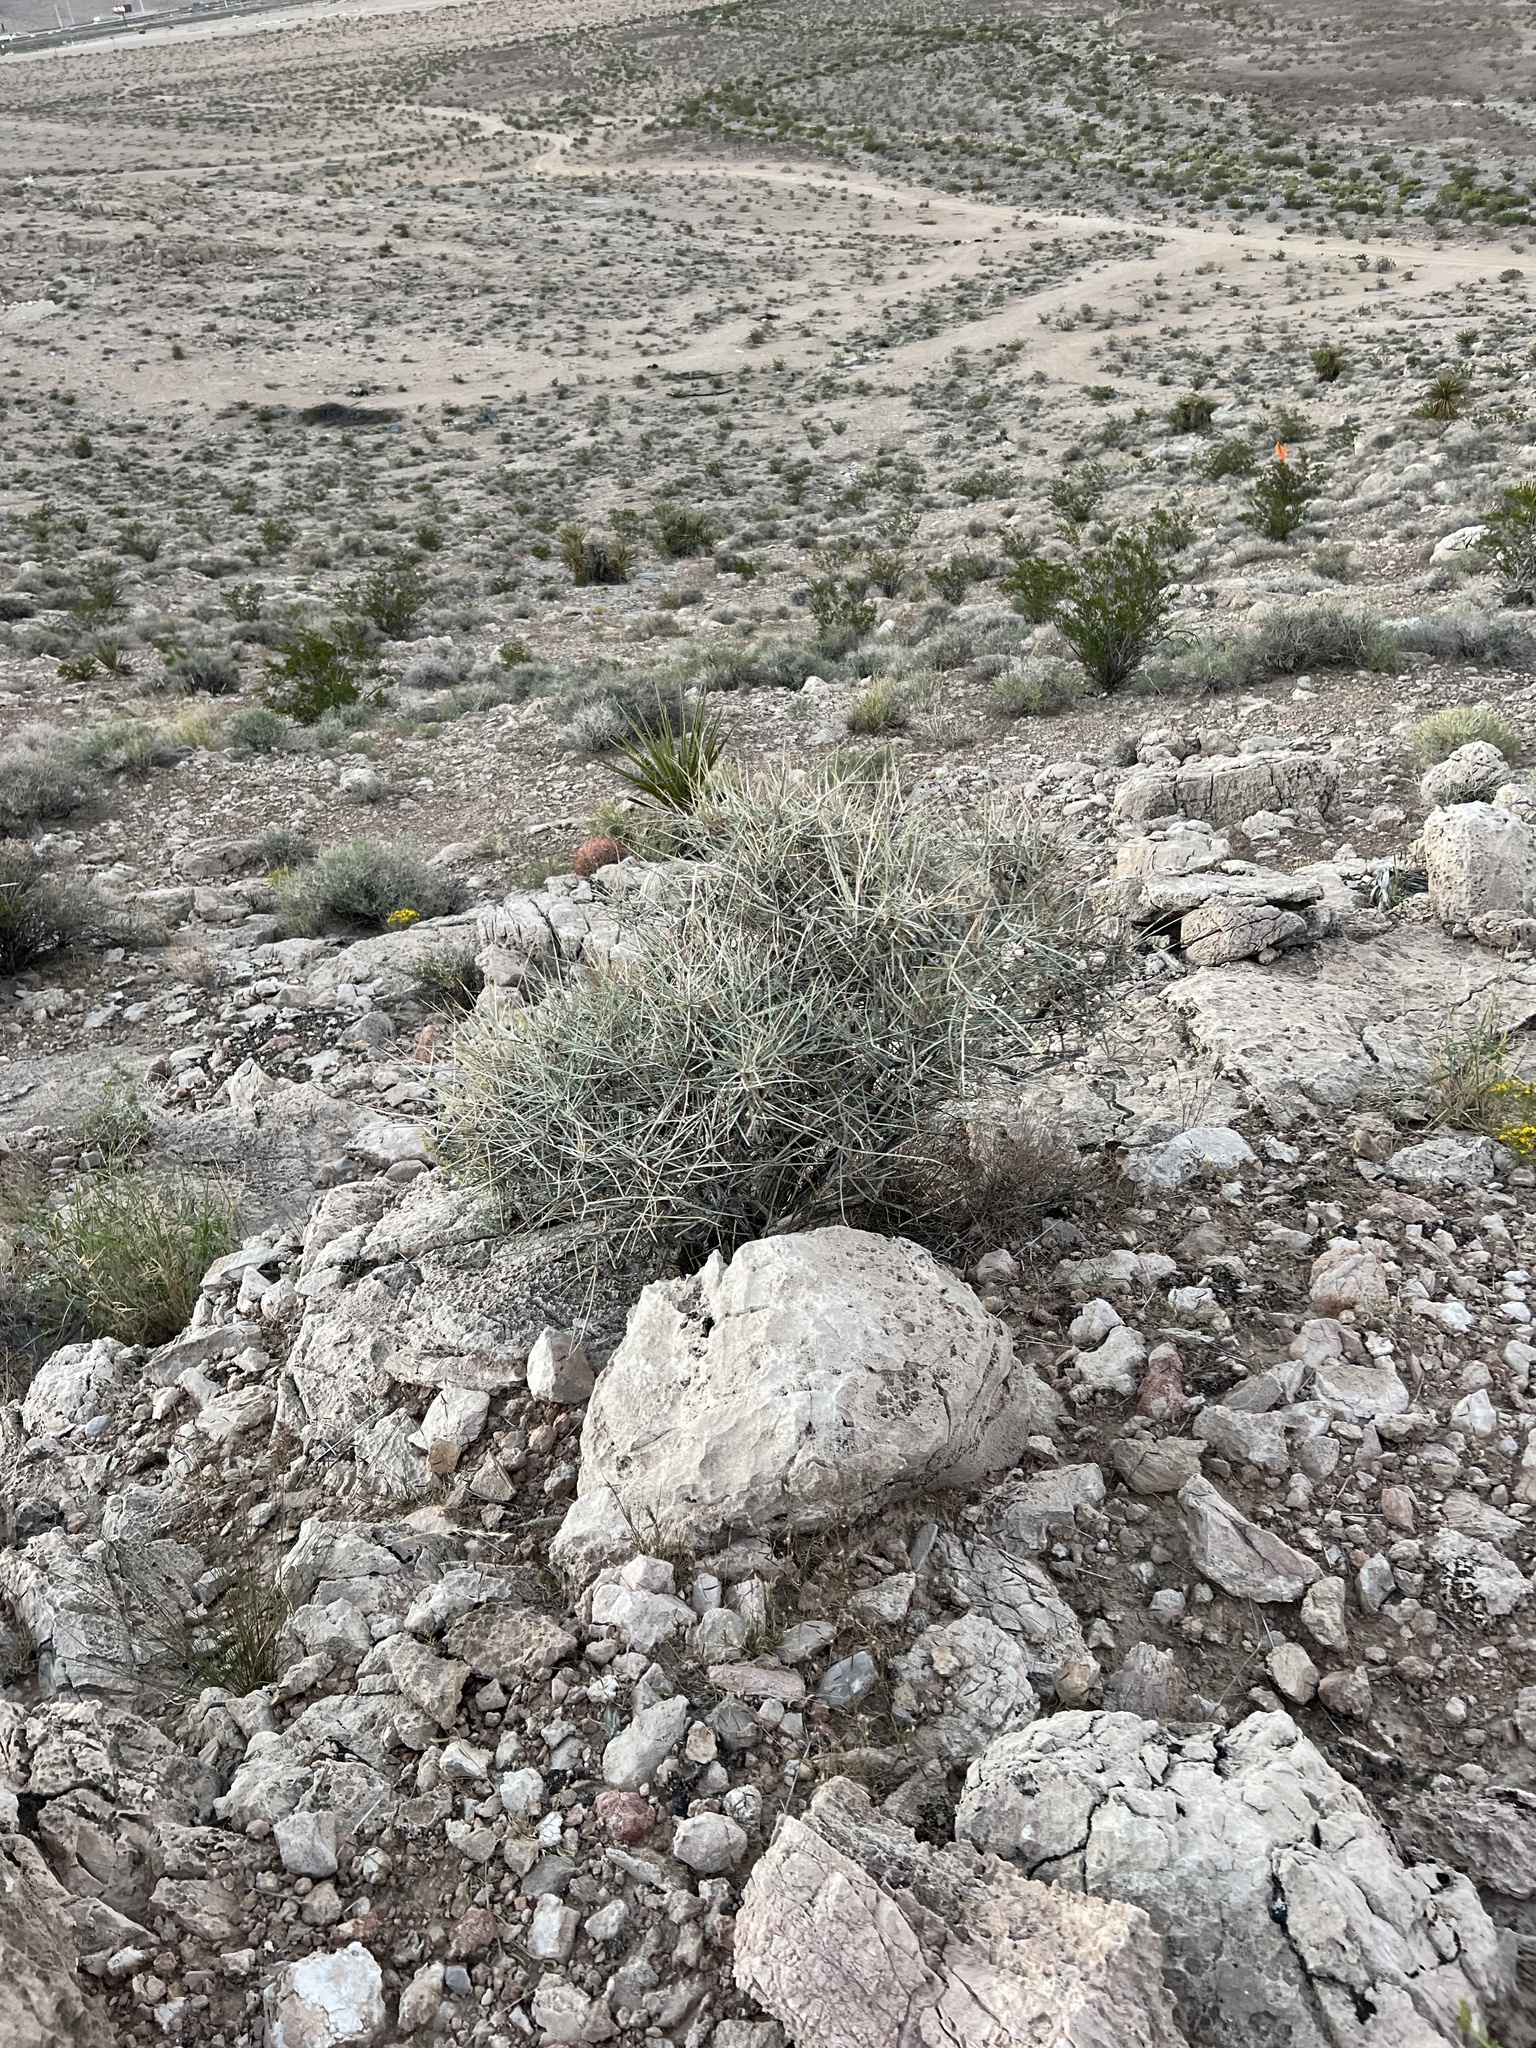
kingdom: Plantae
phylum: Tracheophyta
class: Gnetopsida
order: Ephedrales
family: Ephedraceae
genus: Ephedra
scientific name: Ephedra nevadensis
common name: Gray ephedra
